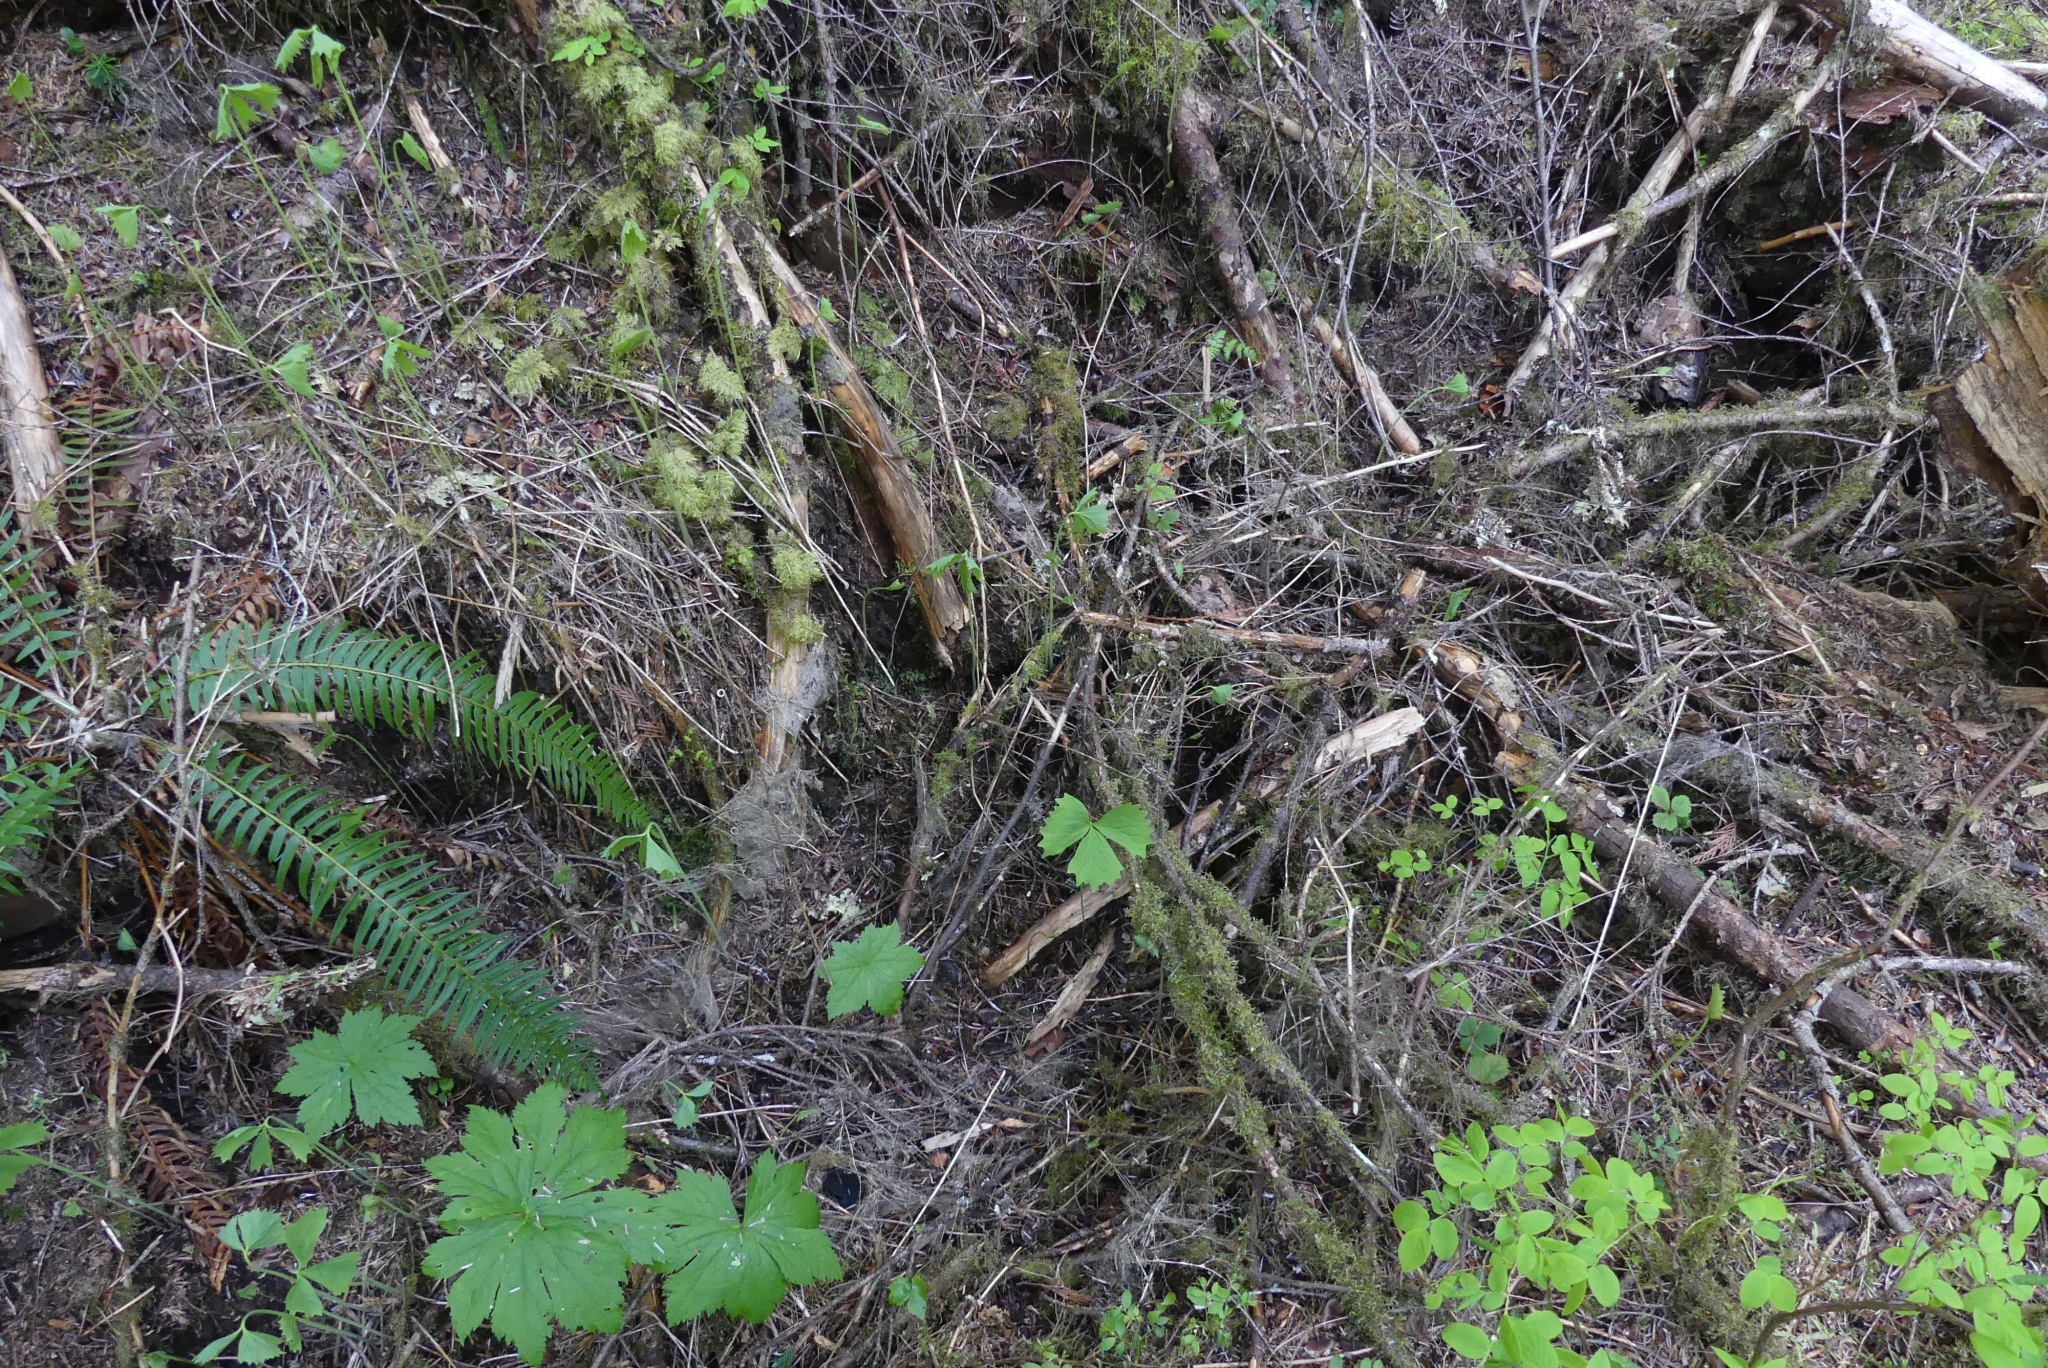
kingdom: Plantae
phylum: Tracheophyta
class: Magnoliopsida
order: Ranunculales
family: Berberidaceae
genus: Achlys
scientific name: Achlys triphylla
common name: Vanilla-leaf
